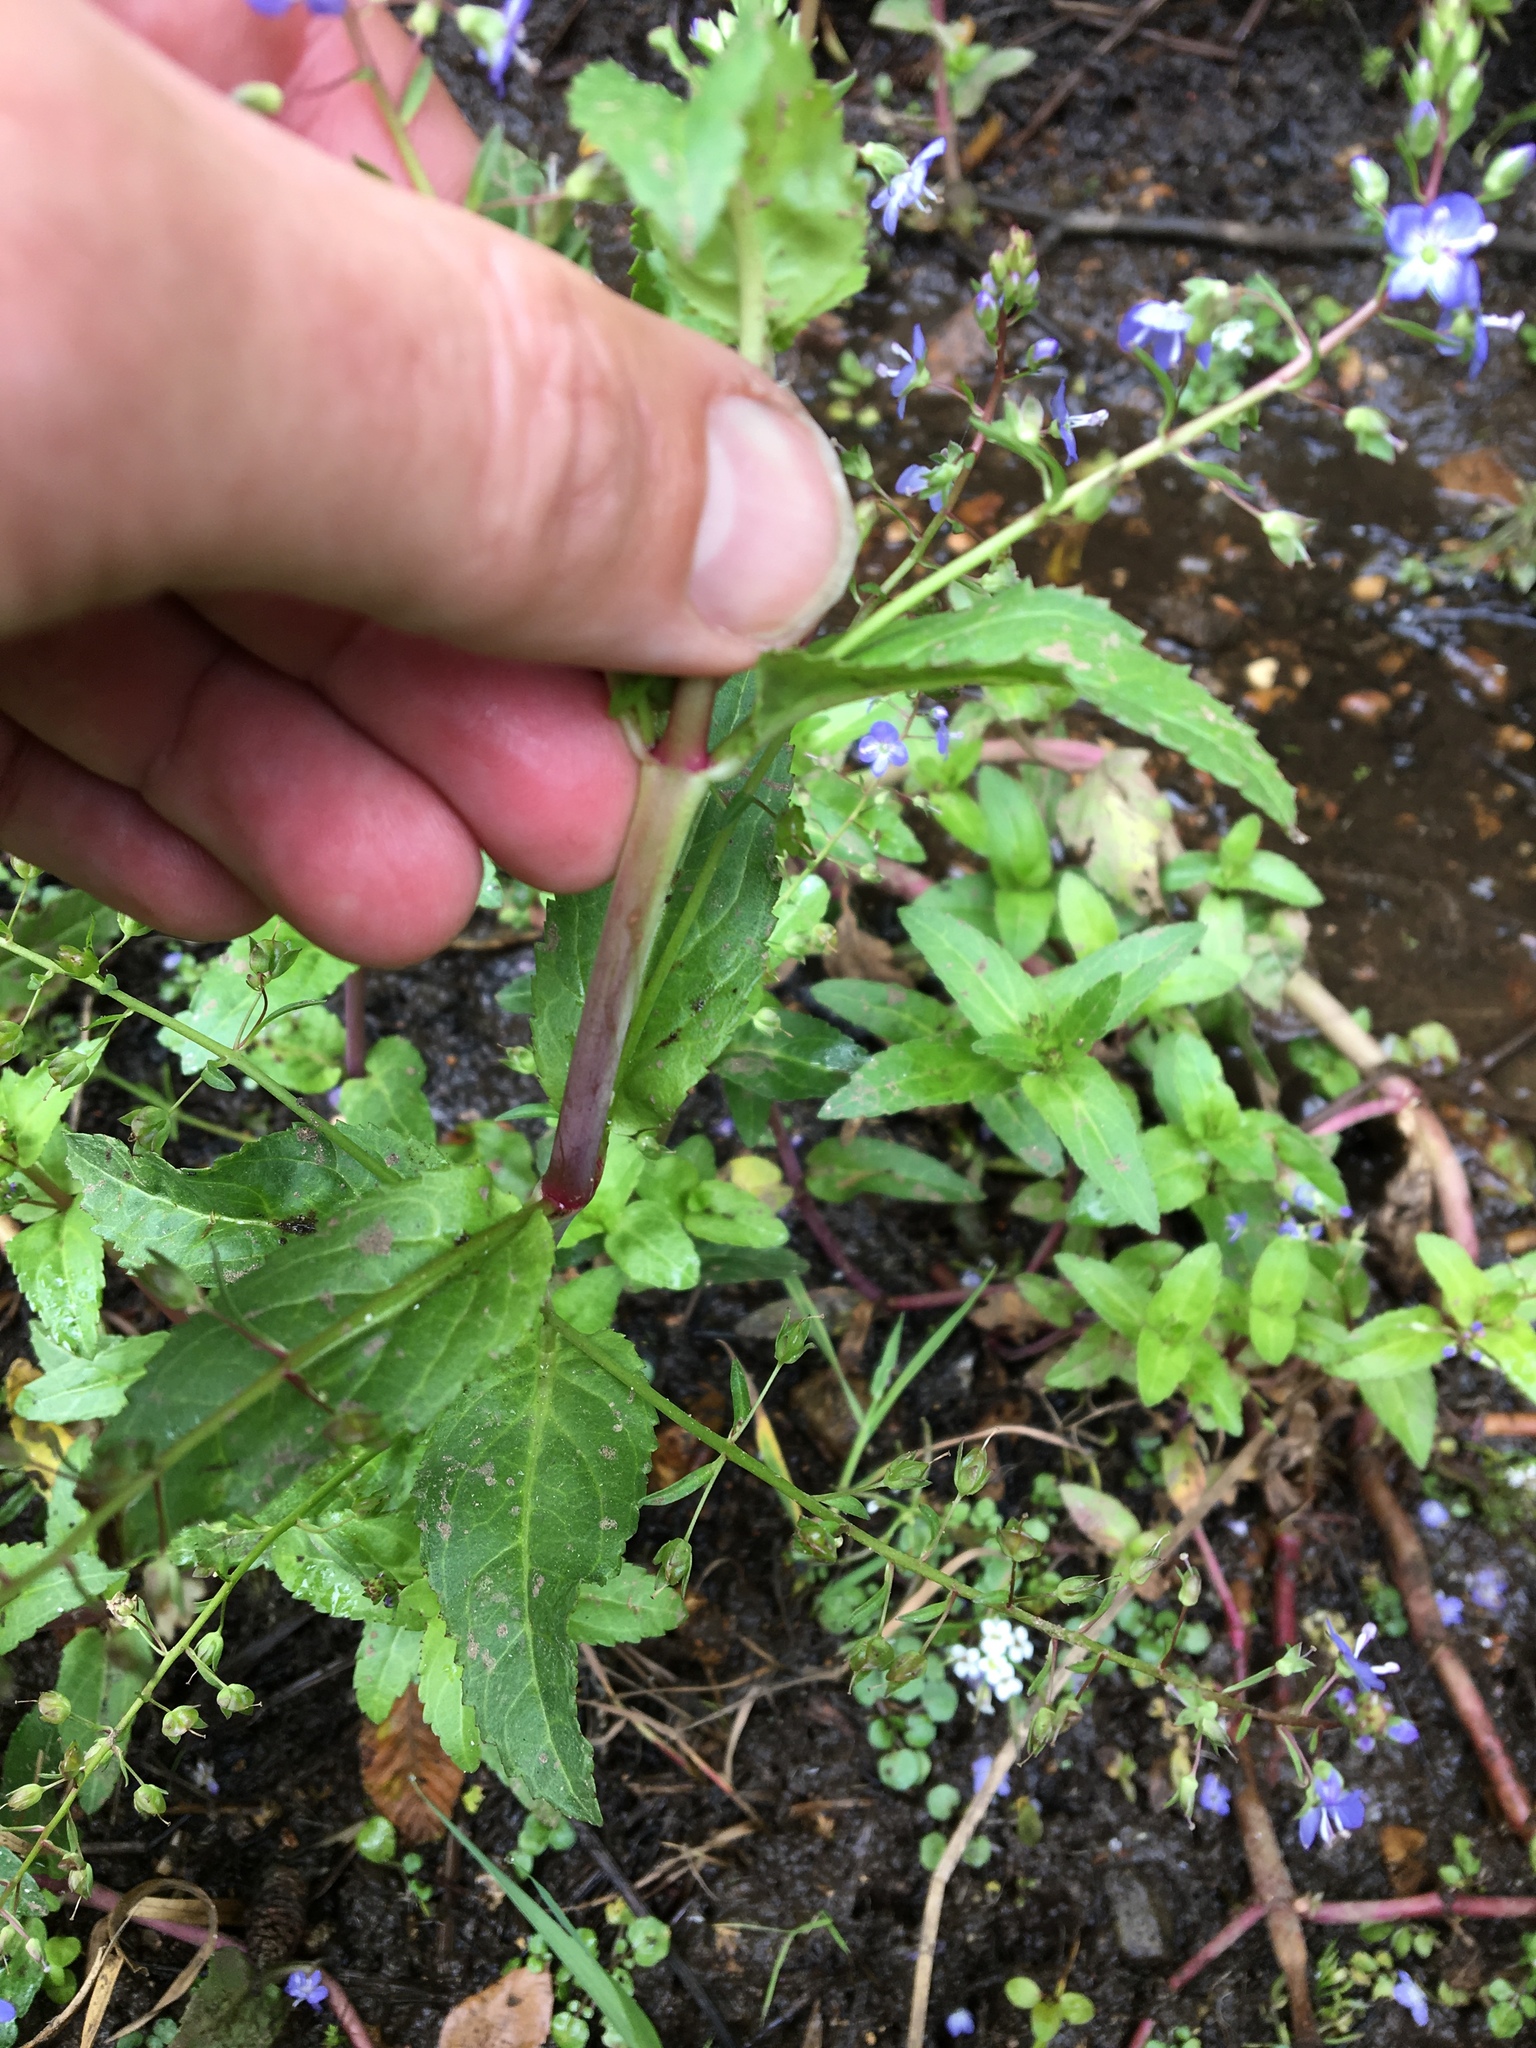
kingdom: Plantae
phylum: Tracheophyta
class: Magnoliopsida
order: Lamiales
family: Plantaginaceae
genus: Veronica
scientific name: Veronica americana
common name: American brooklime
